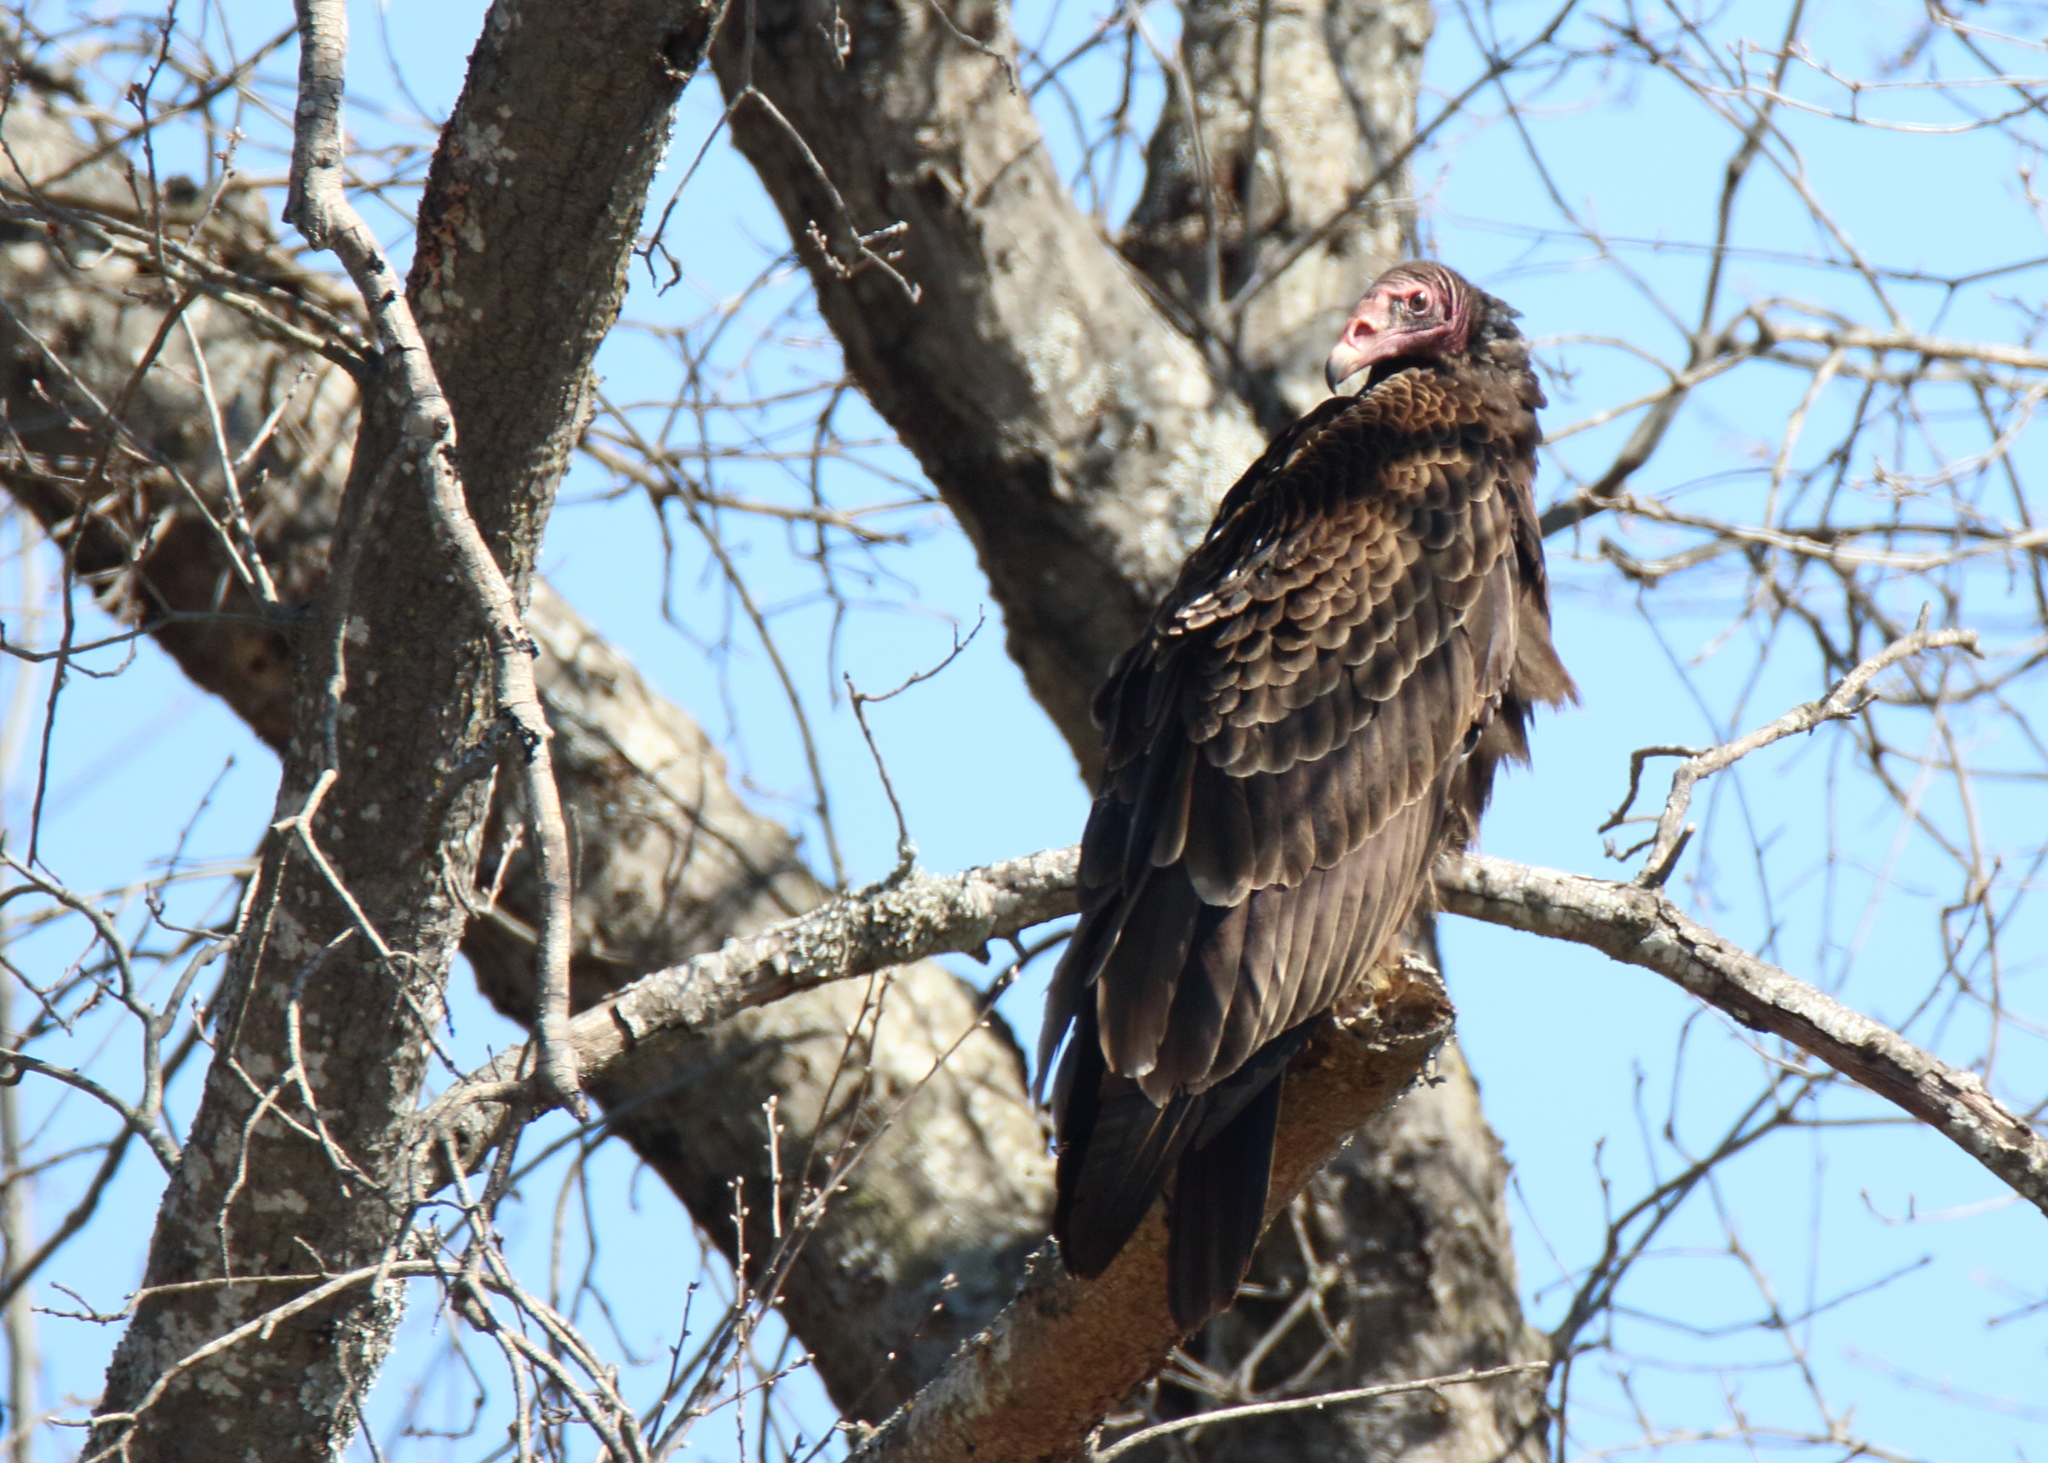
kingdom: Animalia
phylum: Chordata
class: Aves
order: Accipitriformes
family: Cathartidae
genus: Cathartes
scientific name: Cathartes aura
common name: Turkey vulture
